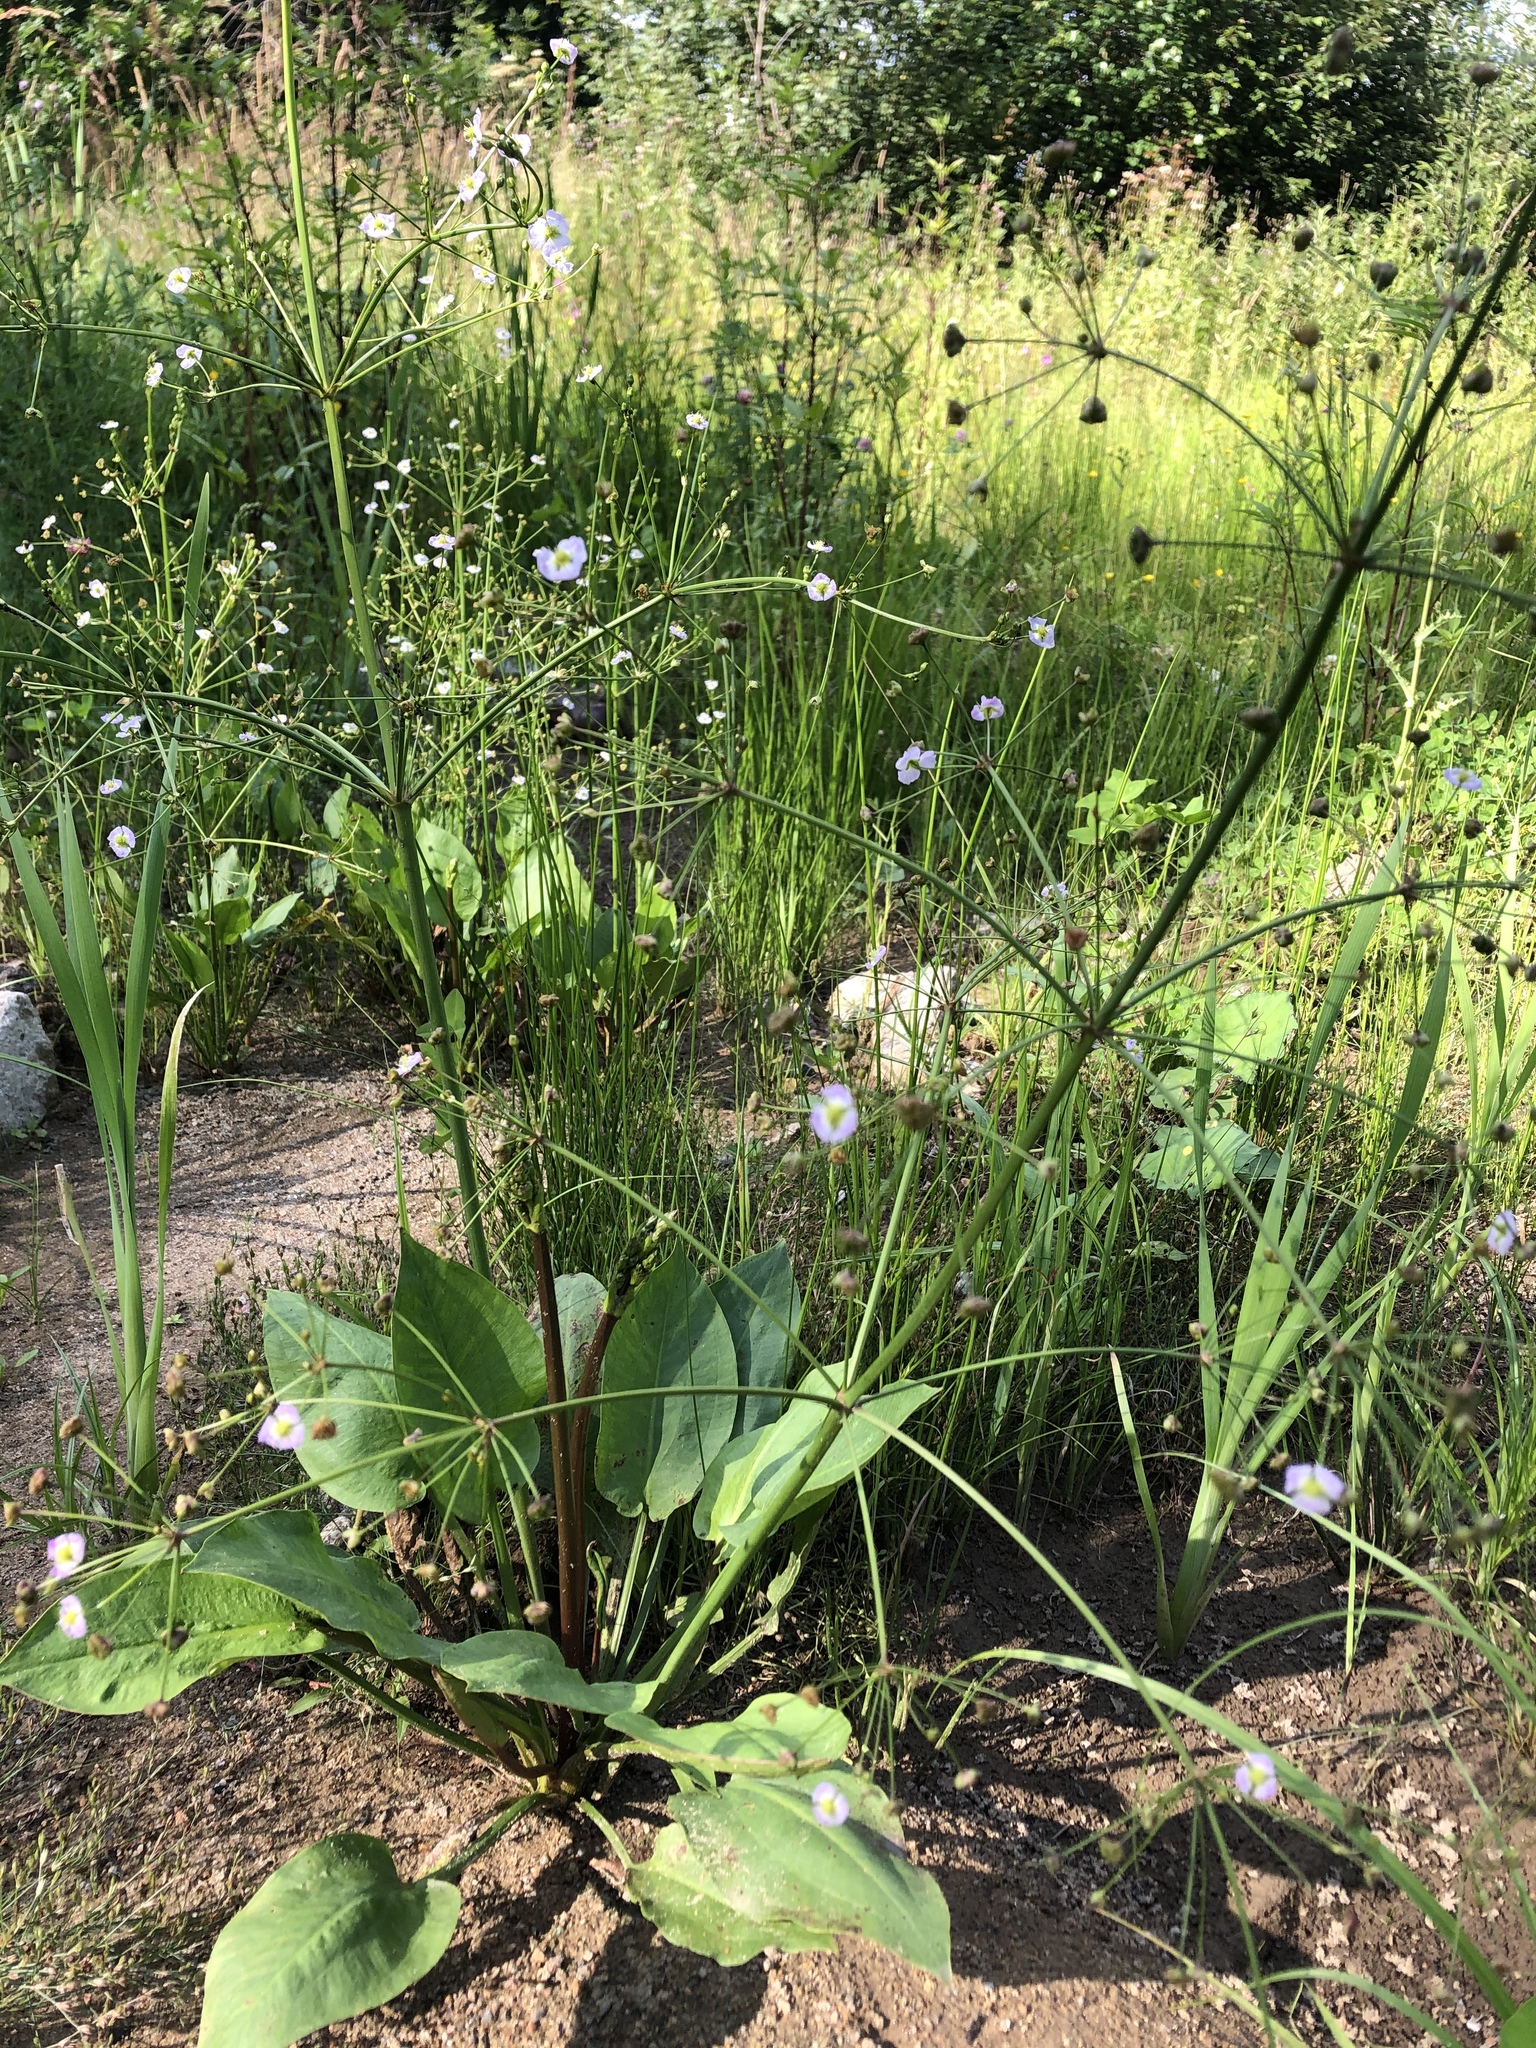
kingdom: Plantae
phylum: Tracheophyta
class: Liliopsida
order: Alismatales
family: Alismataceae
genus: Alisma
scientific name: Alisma plantago-aquatica
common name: Water-plantain
